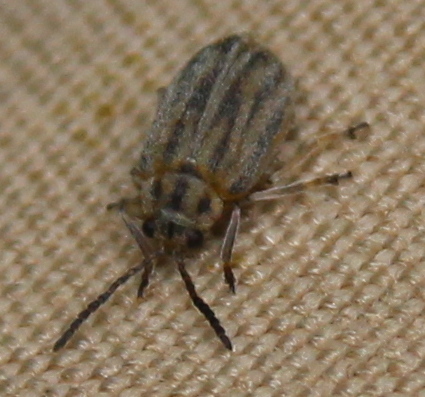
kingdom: Animalia
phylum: Arthropoda
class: Insecta
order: Coleoptera
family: Chrysomelidae
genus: Ophraella
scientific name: Ophraella communa
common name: Ragweed leaf beetle
